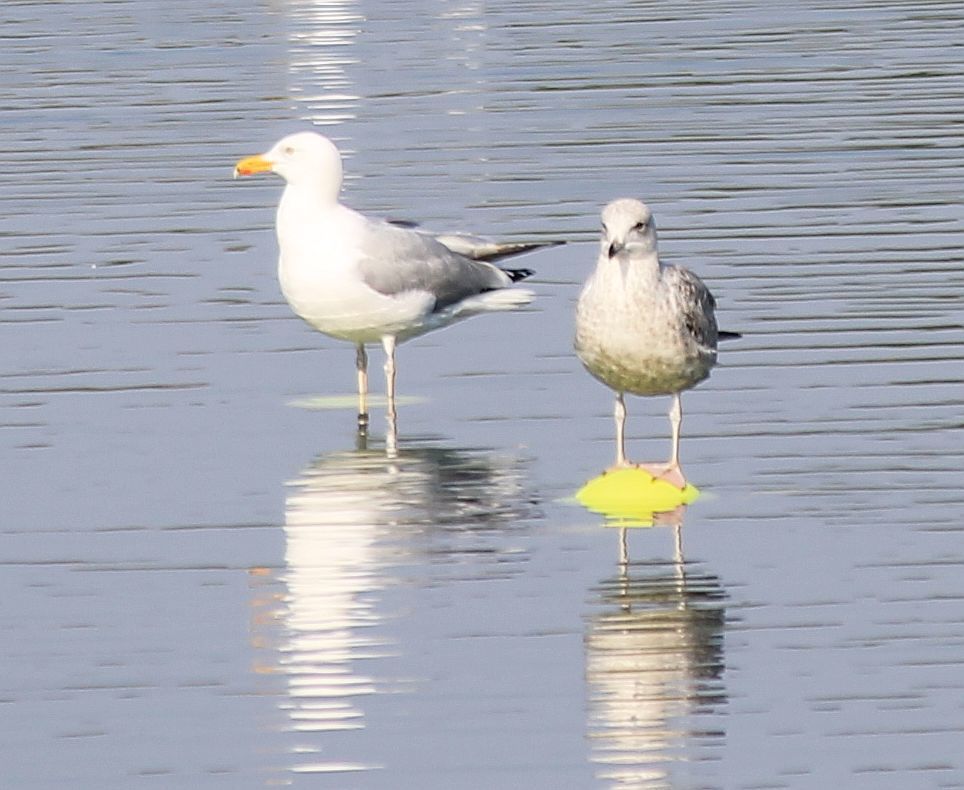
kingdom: Animalia
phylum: Chordata
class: Aves
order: Charadriiformes
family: Laridae
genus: Larus
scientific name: Larus argentatus
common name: Herring gull
